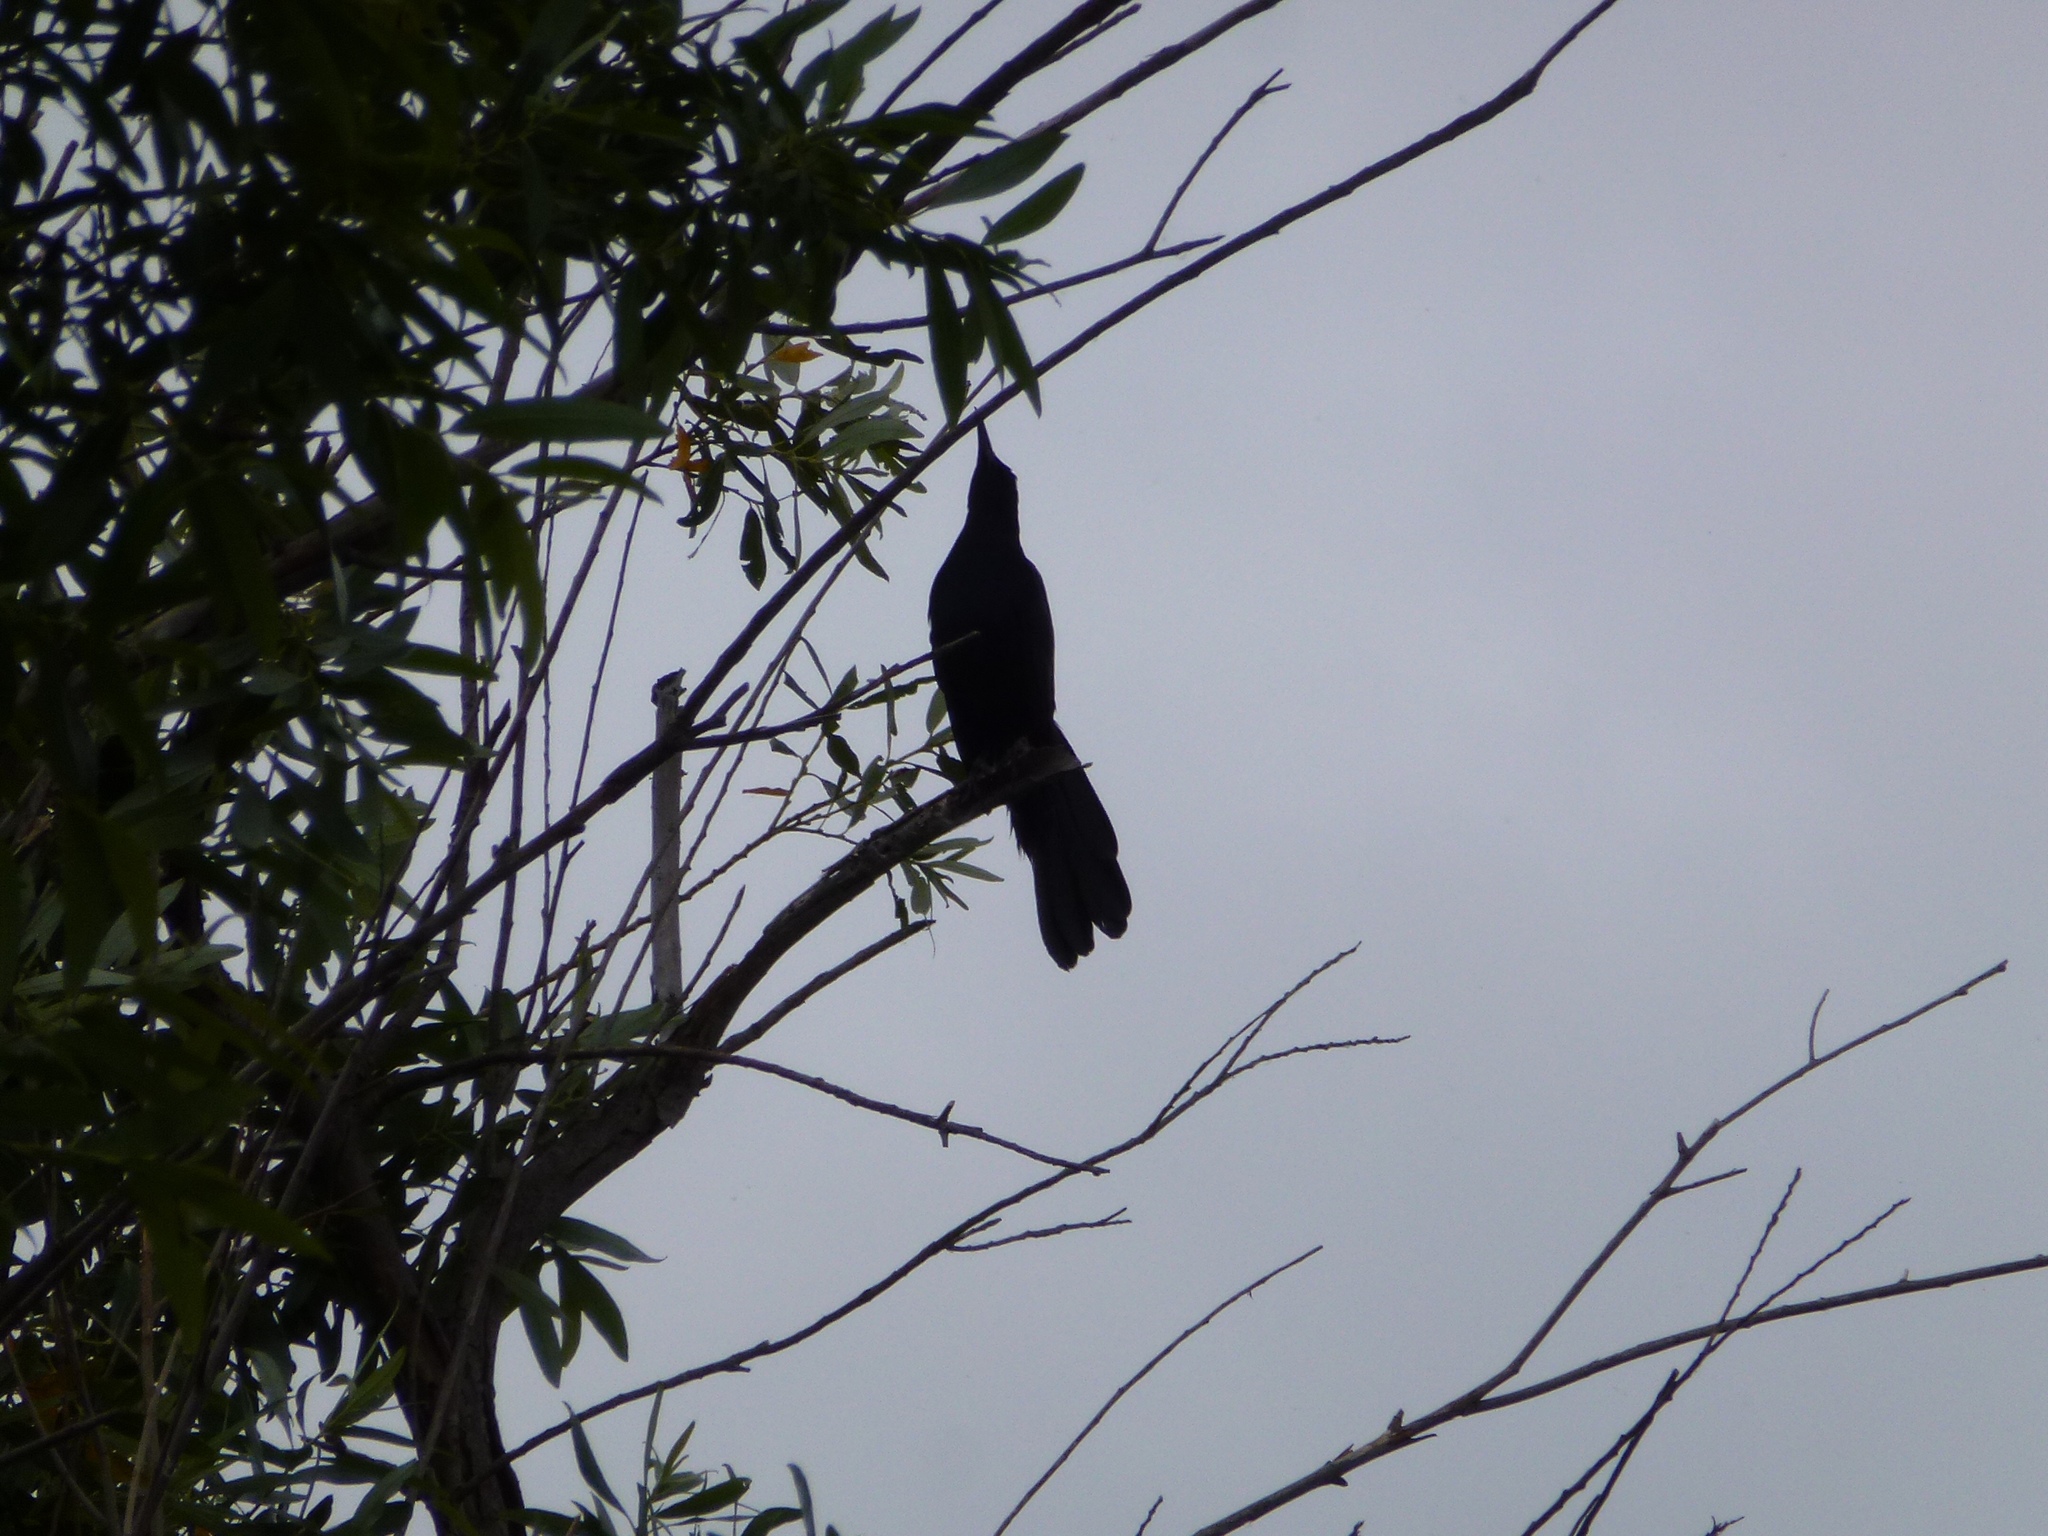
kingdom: Animalia
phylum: Chordata
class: Aves
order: Passeriformes
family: Icteridae
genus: Quiscalus
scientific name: Quiscalus mexicanus
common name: Great-tailed grackle
